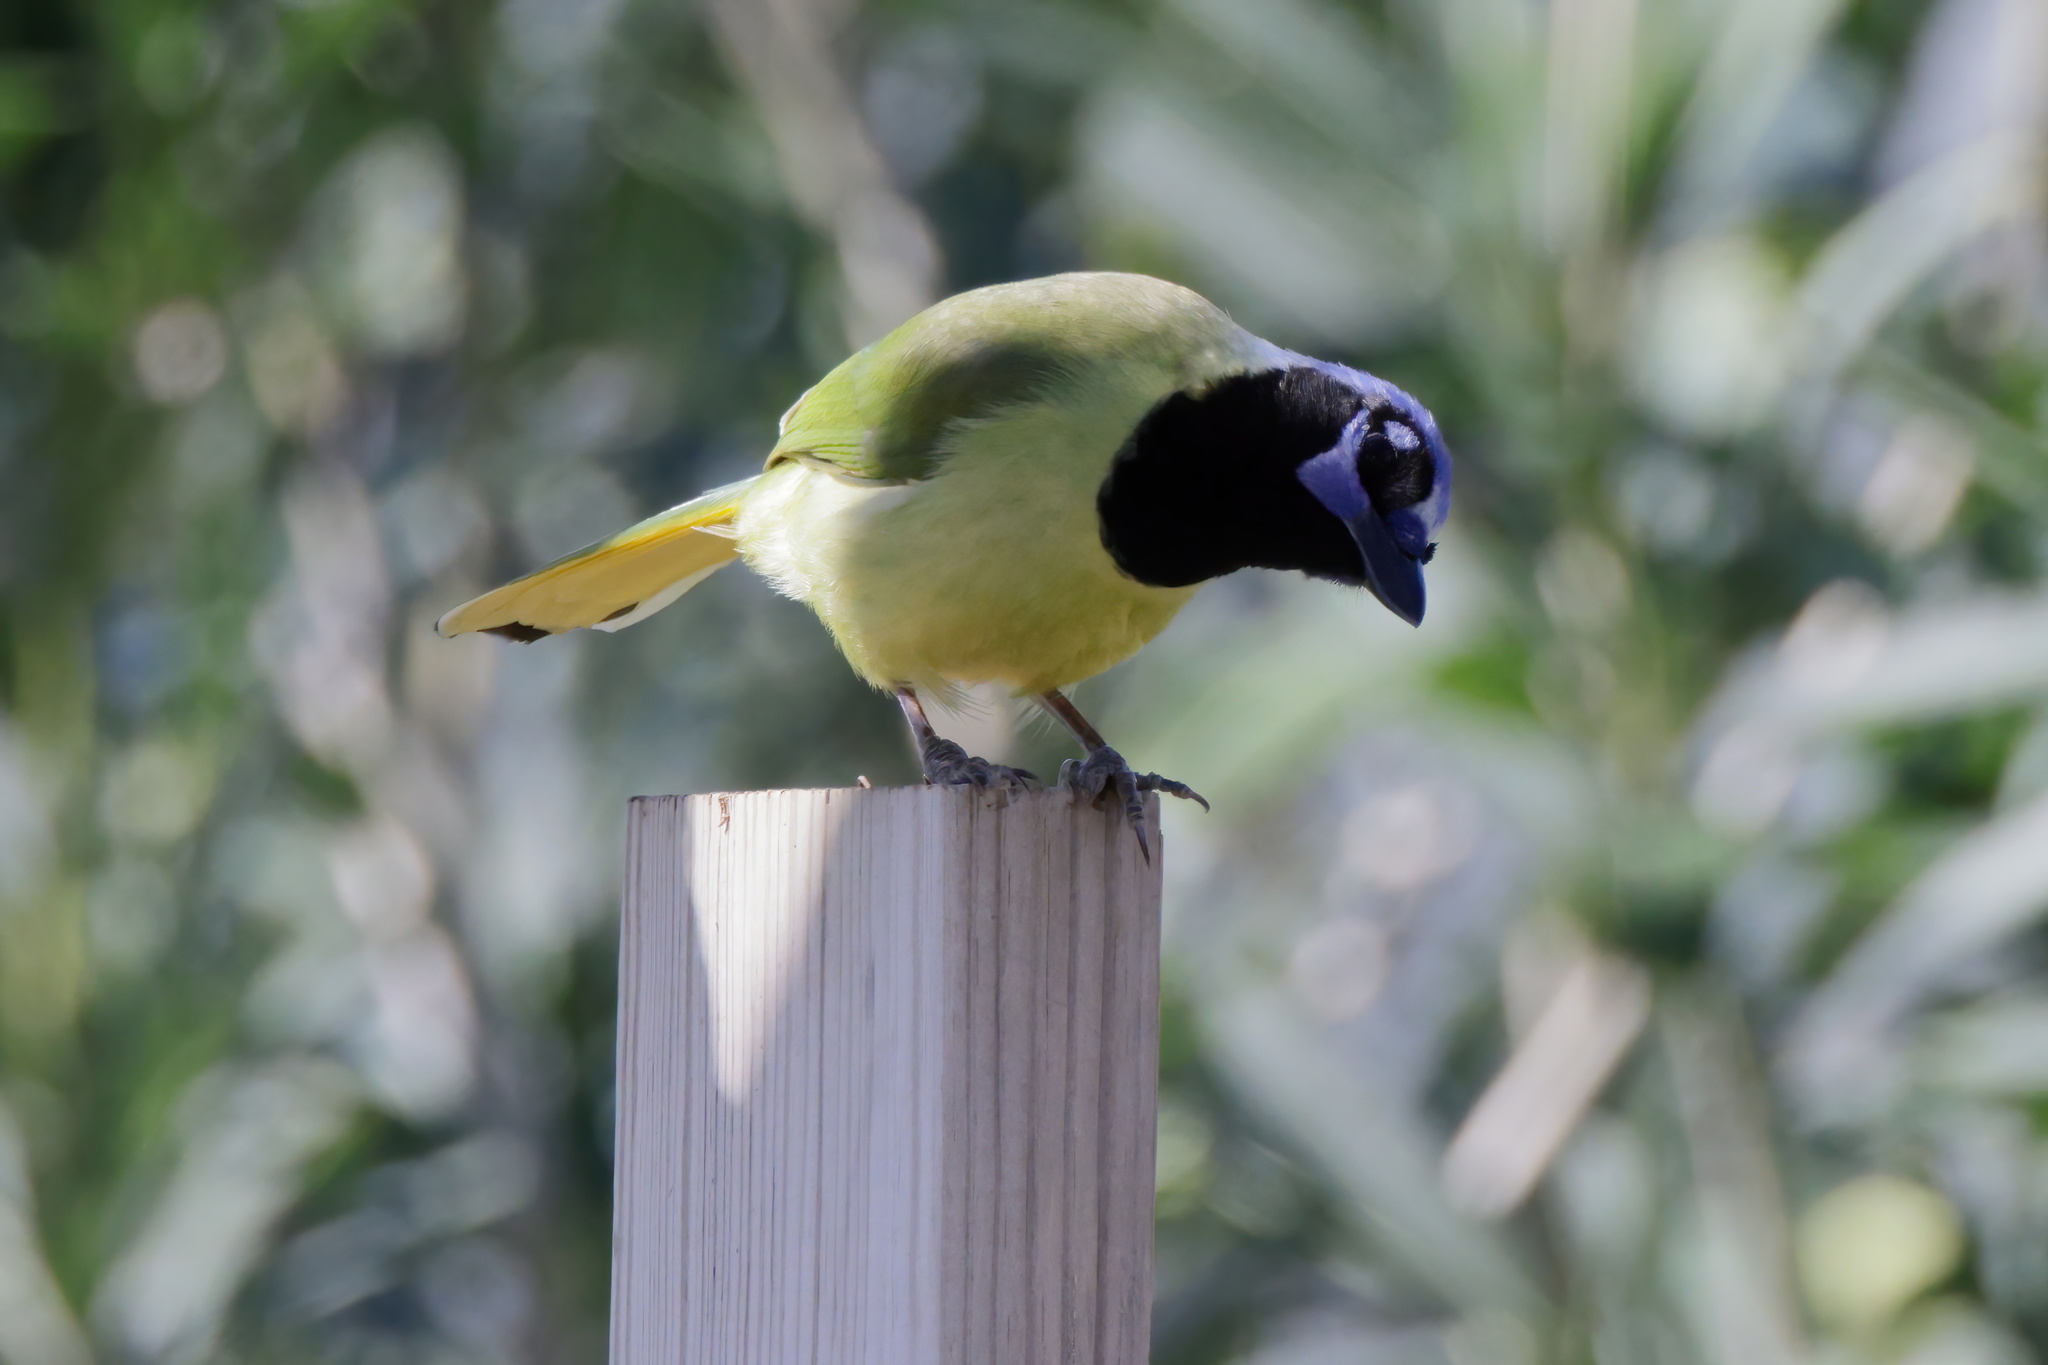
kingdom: Animalia
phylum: Chordata
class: Aves
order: Passeriformes
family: Corvidae
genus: Cyanocorax
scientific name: Cyanocorax yncas
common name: Green jay
